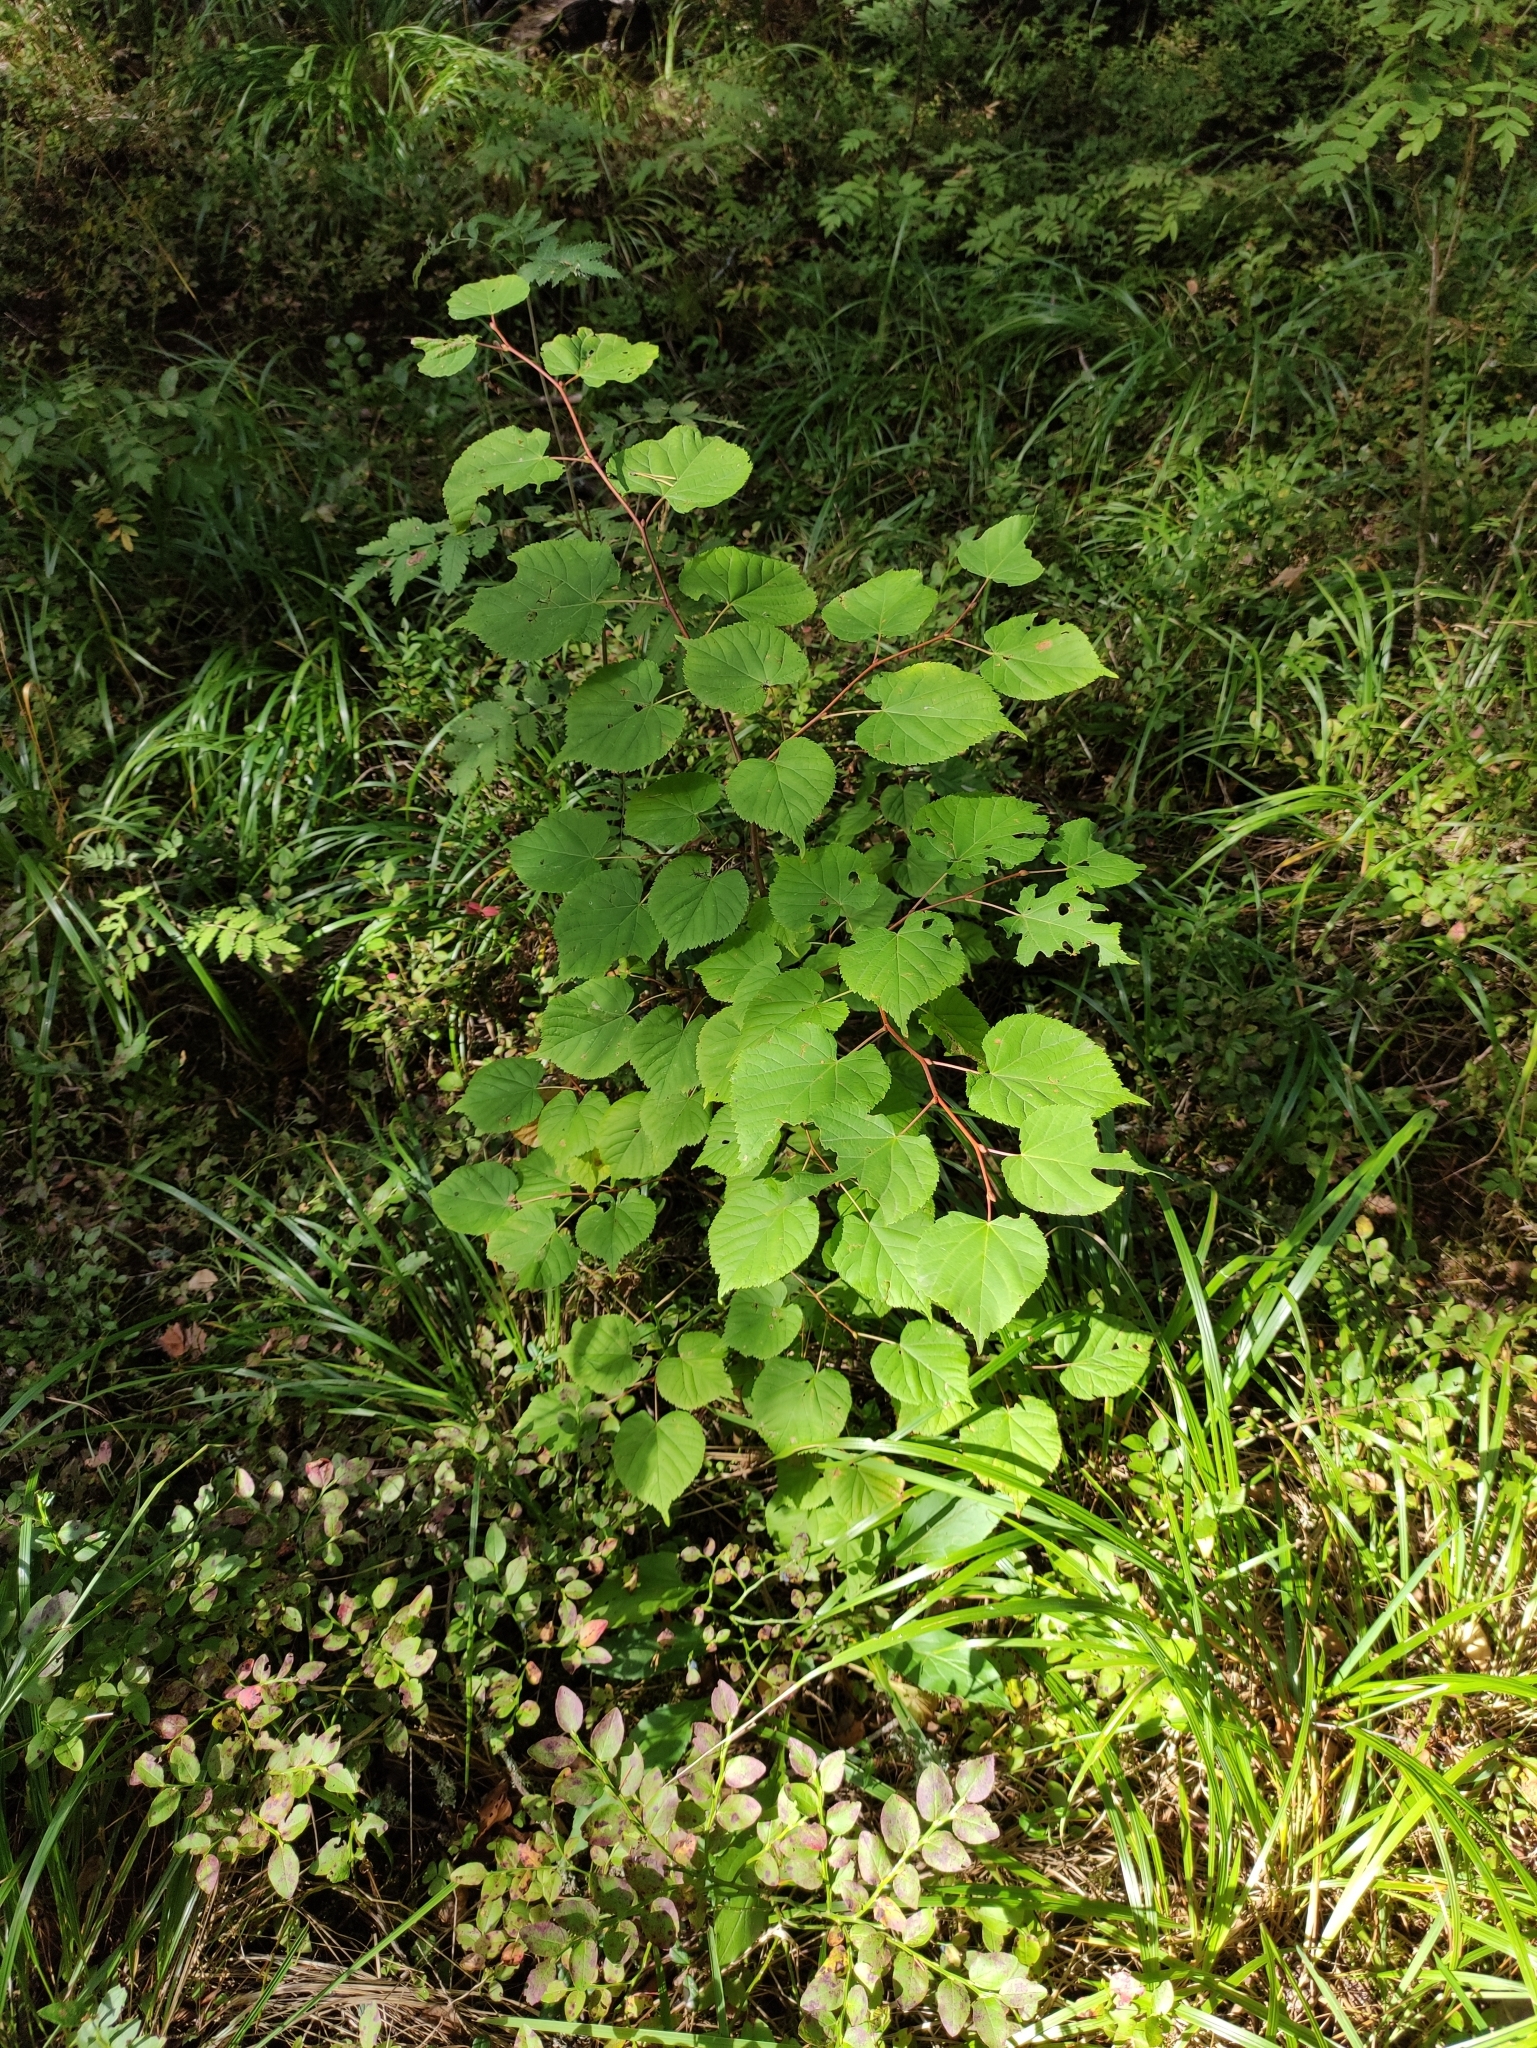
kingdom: Plantae
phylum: Tracheophyta
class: Magnoliopsida
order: Malvales
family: Malvaceae
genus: Tilia
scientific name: Tilia cordata
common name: Small-leaved lime
